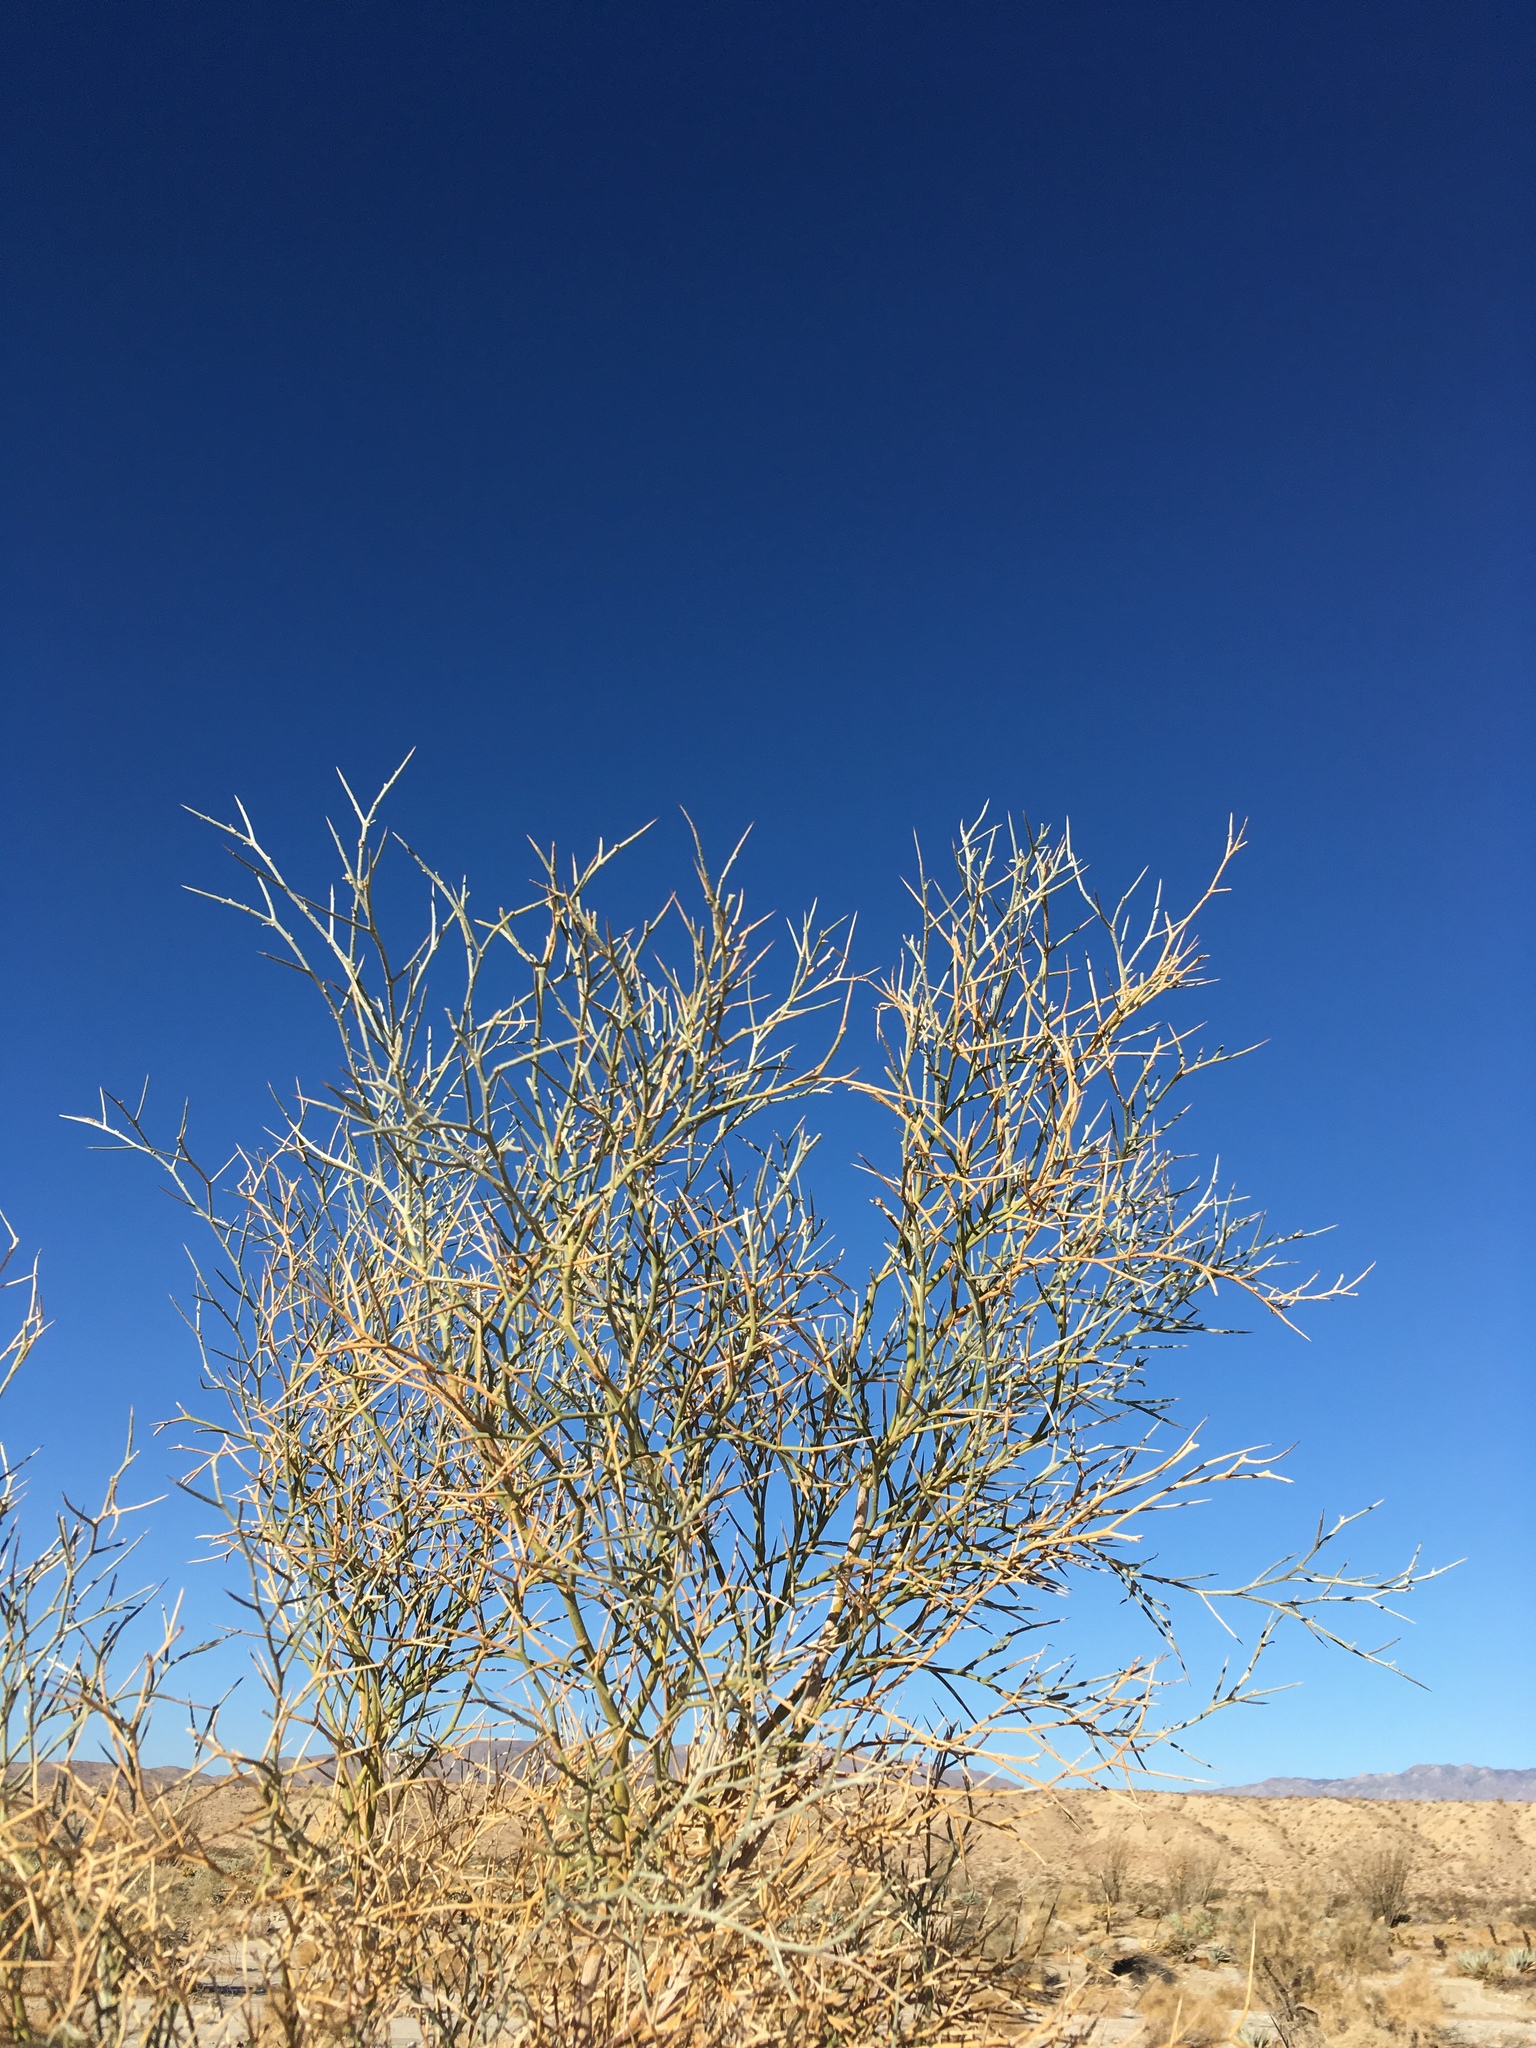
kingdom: Plantae
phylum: Tracheophyta
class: Magnoliopsida
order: Fabales
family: Fabaceae
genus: Psorothamnus
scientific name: Psorothamnus spinosus
